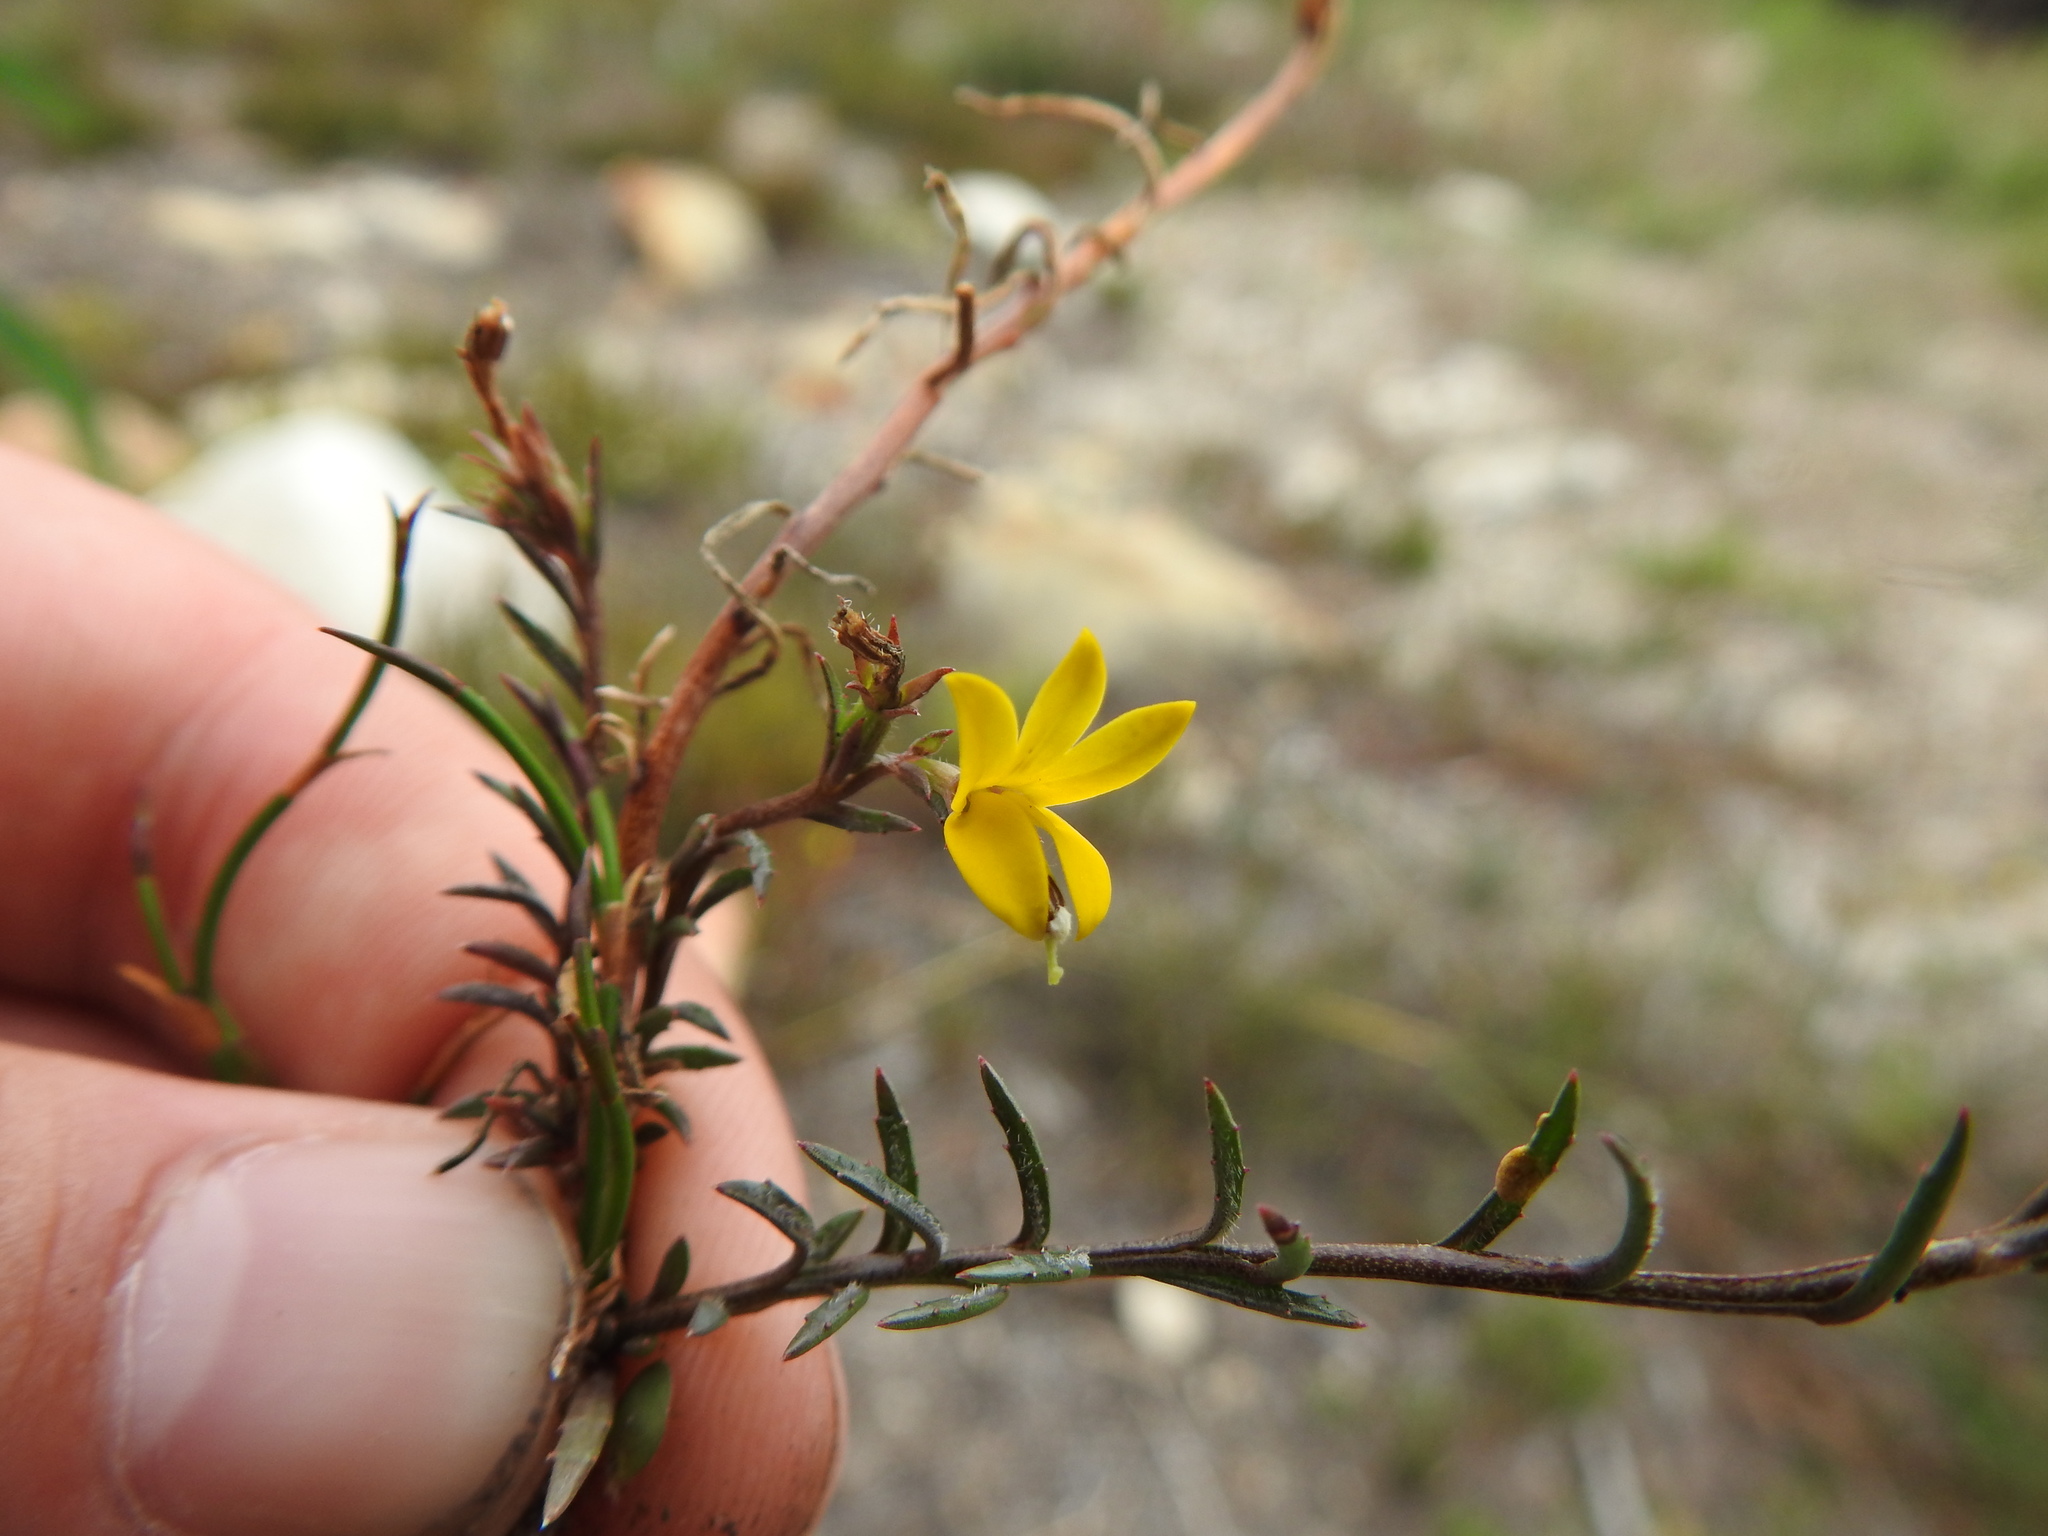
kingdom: Plantae
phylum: Tracheophyta
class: Magnoliopsida
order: Asterales
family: Campanulaceae
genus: Monopsis
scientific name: Monopsis lutea
